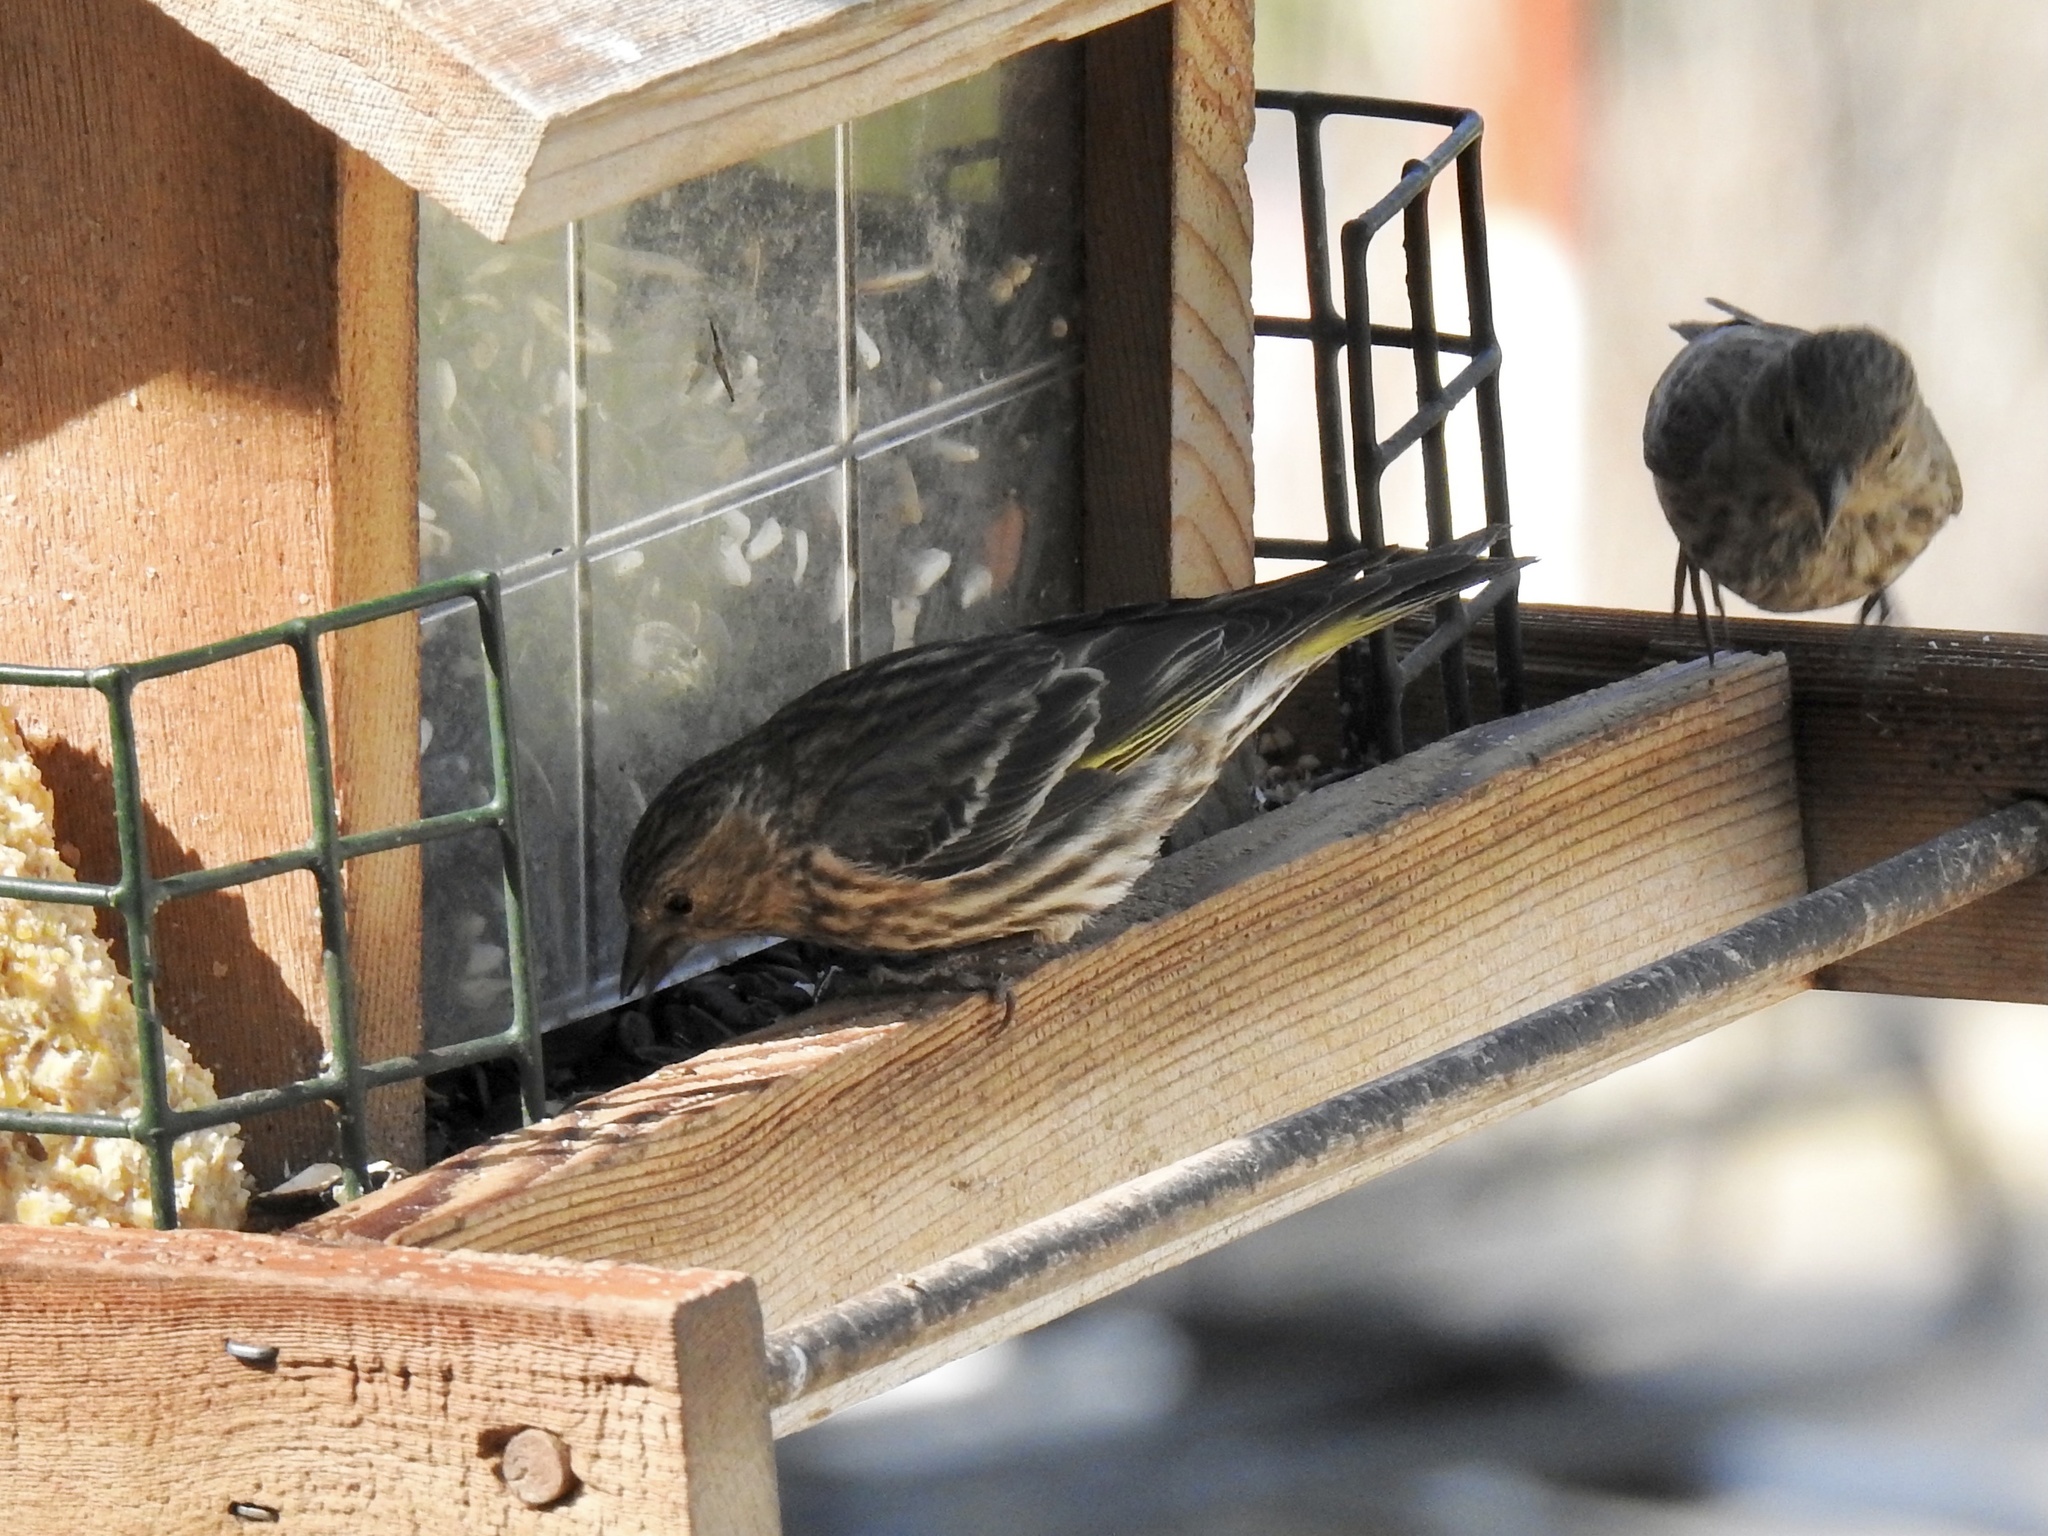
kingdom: Animalia
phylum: Chordata
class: Aves
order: Passeriformes
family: Fringillidae
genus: Spinus
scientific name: Spinus pinus
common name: Pine siskin
